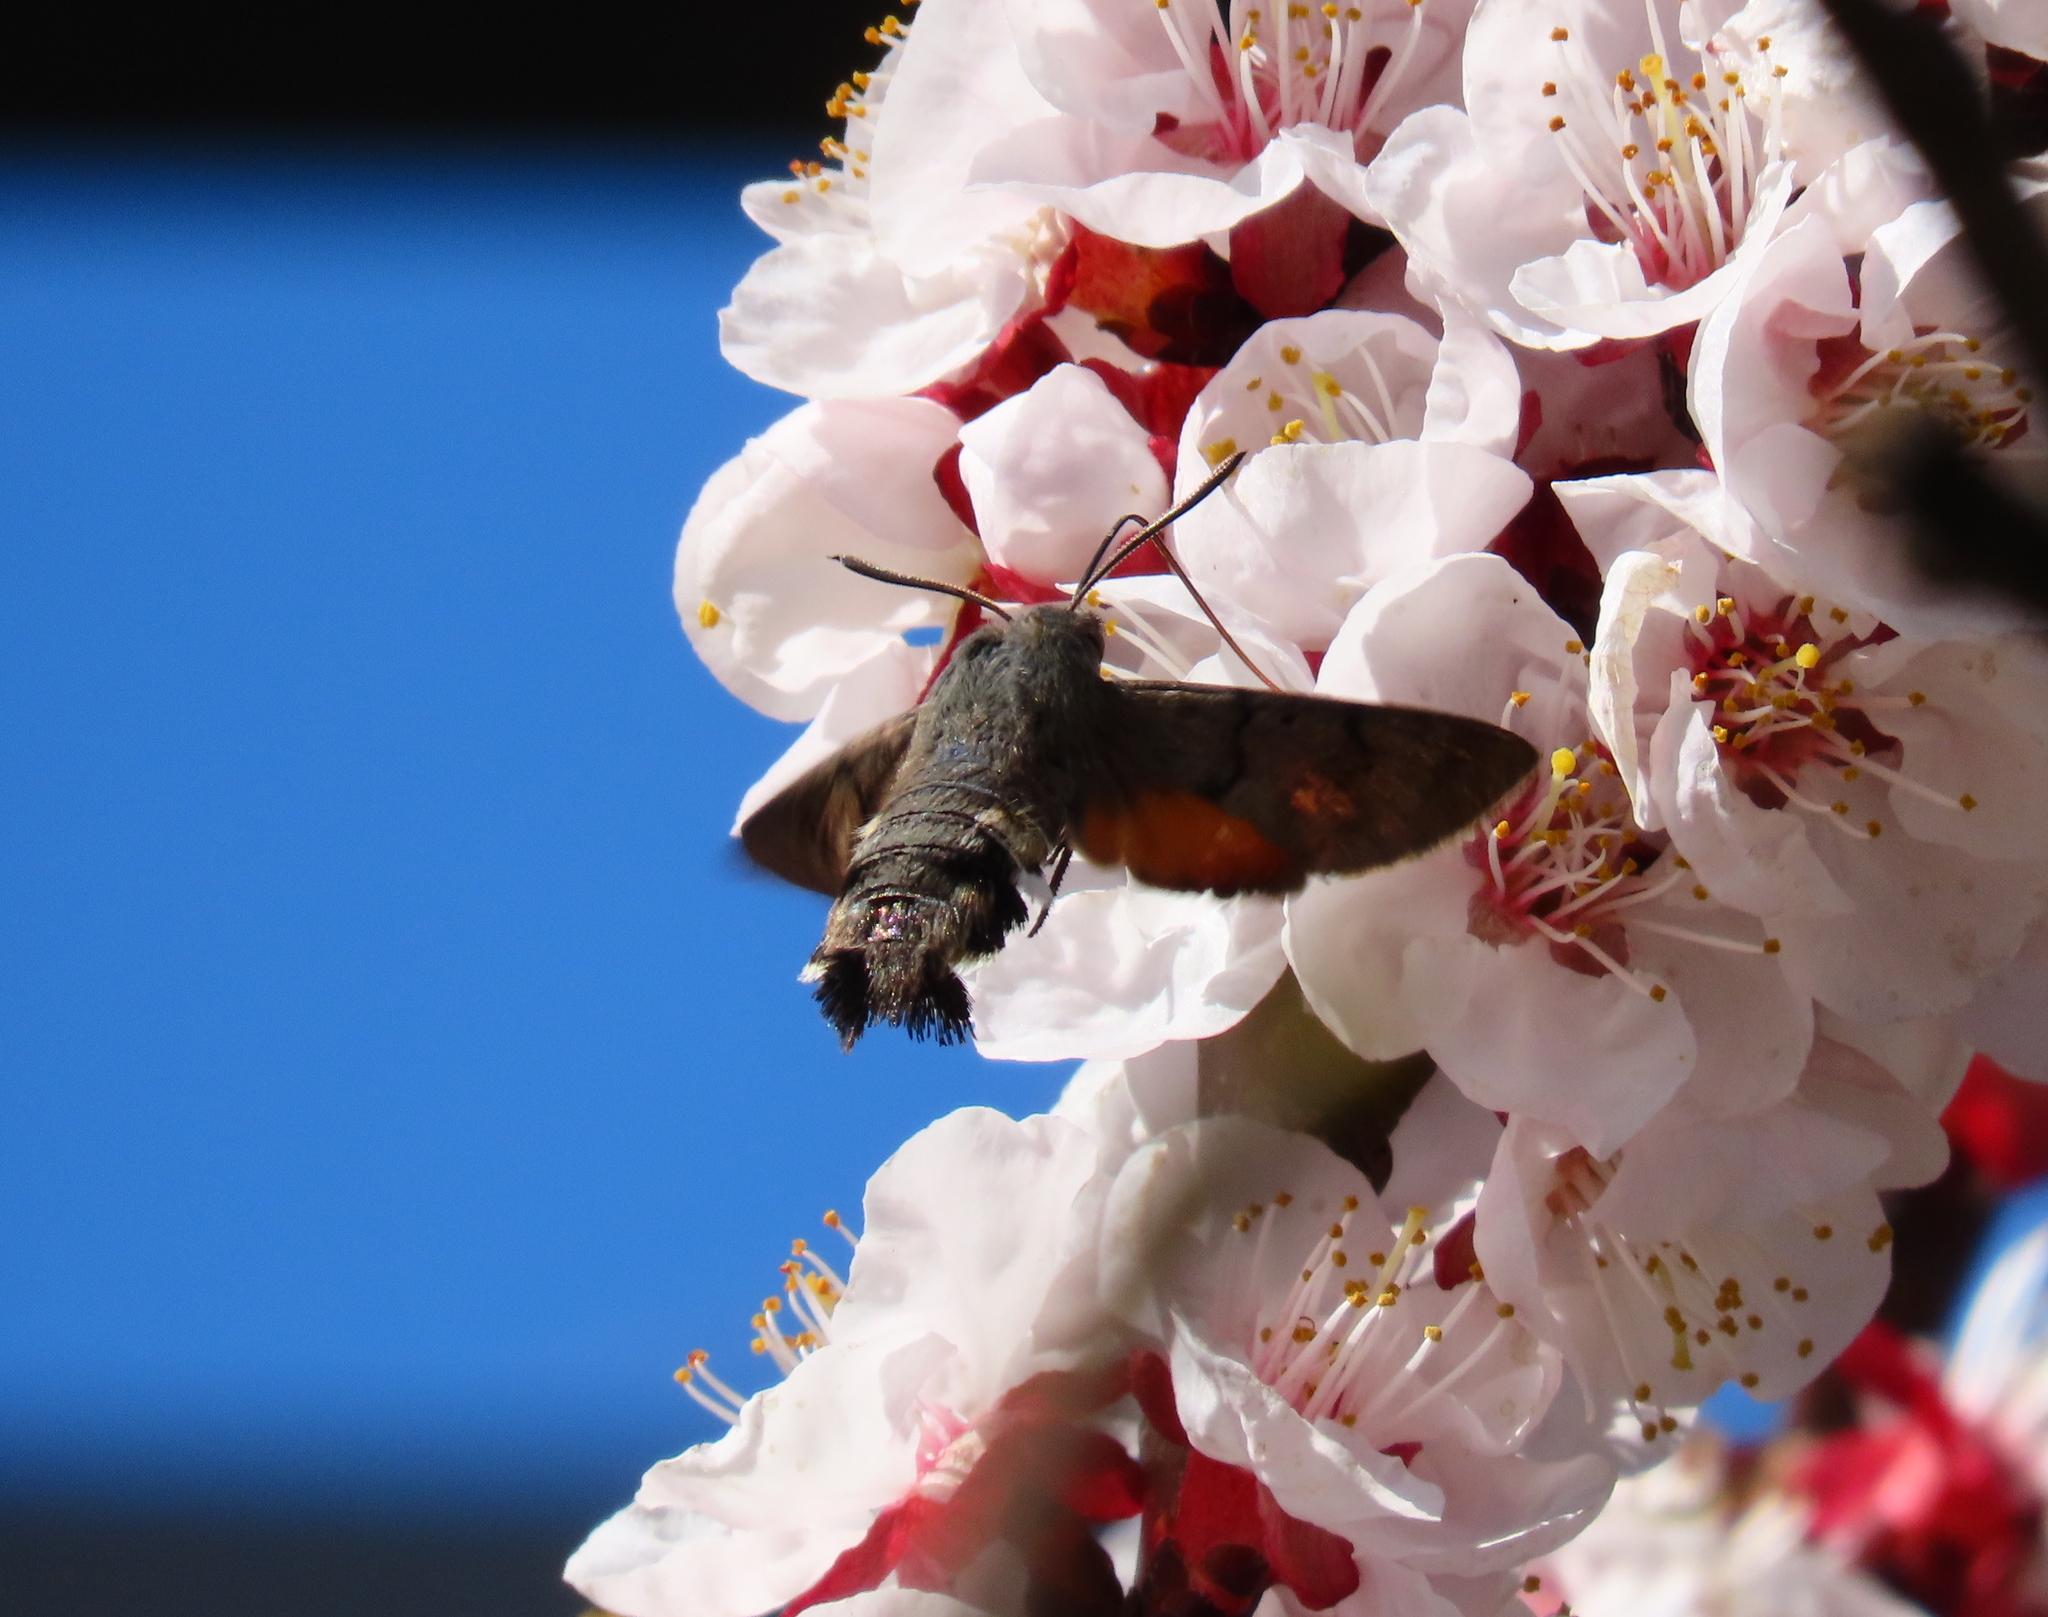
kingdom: Animalia
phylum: Arthropoda
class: Insecta
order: Lepidoptera
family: Sphingidae
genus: Macroglossum
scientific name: Macroglossum stellatarum
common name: Humming-bird hawk-moth
